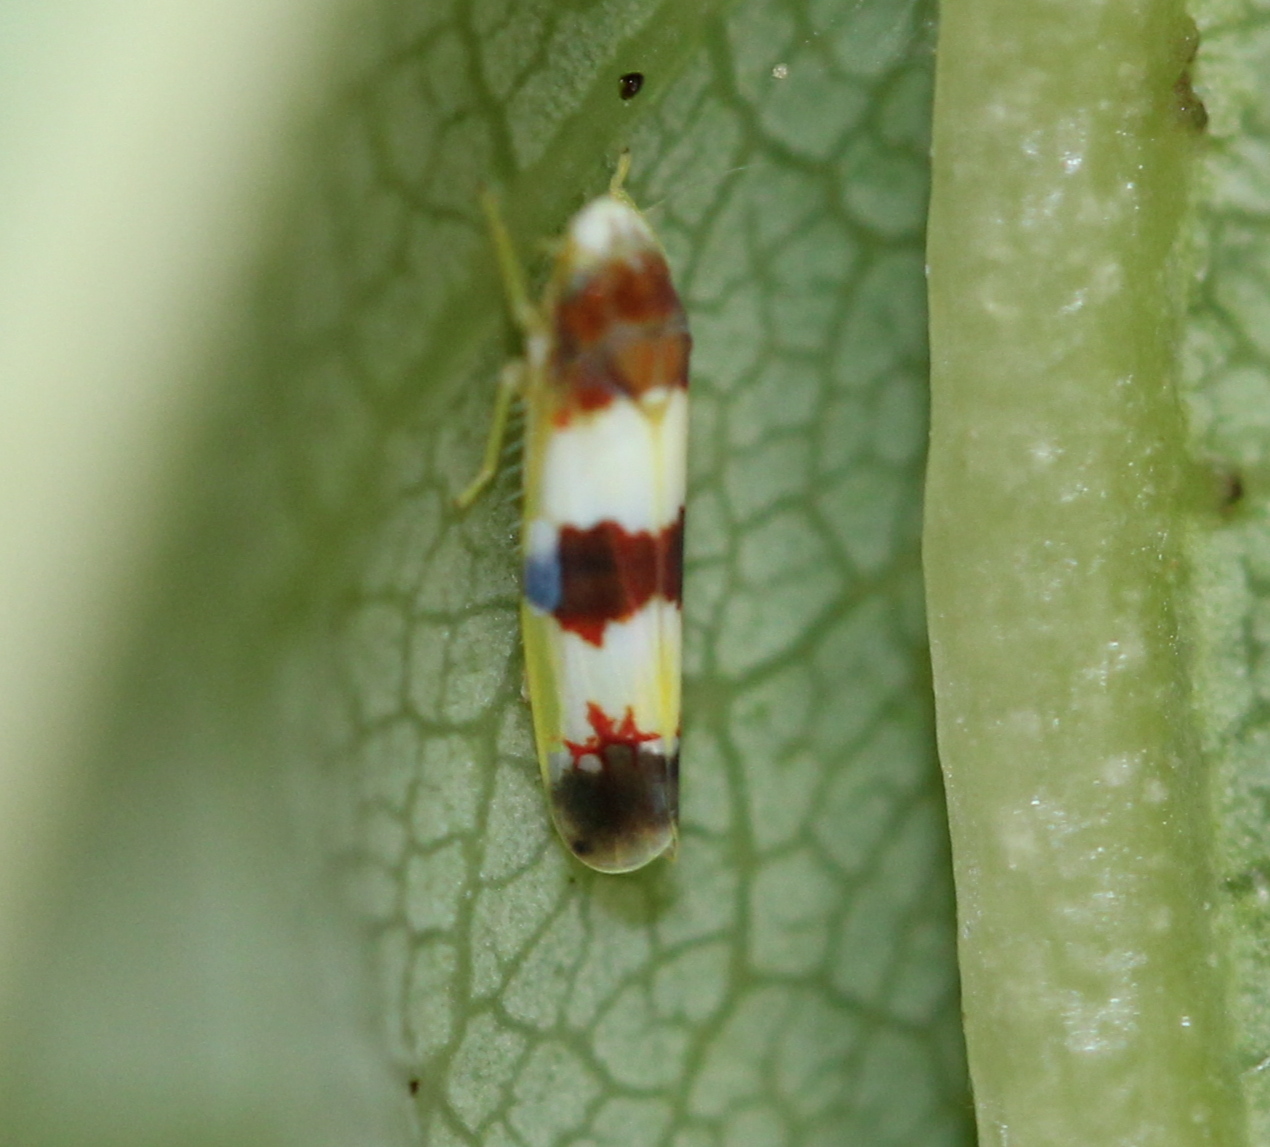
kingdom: Animalia
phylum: Arthropoda
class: Insecta
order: Hemiptera
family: Cicadellidae
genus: Erythroneura
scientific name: Erythroneura bistrata
